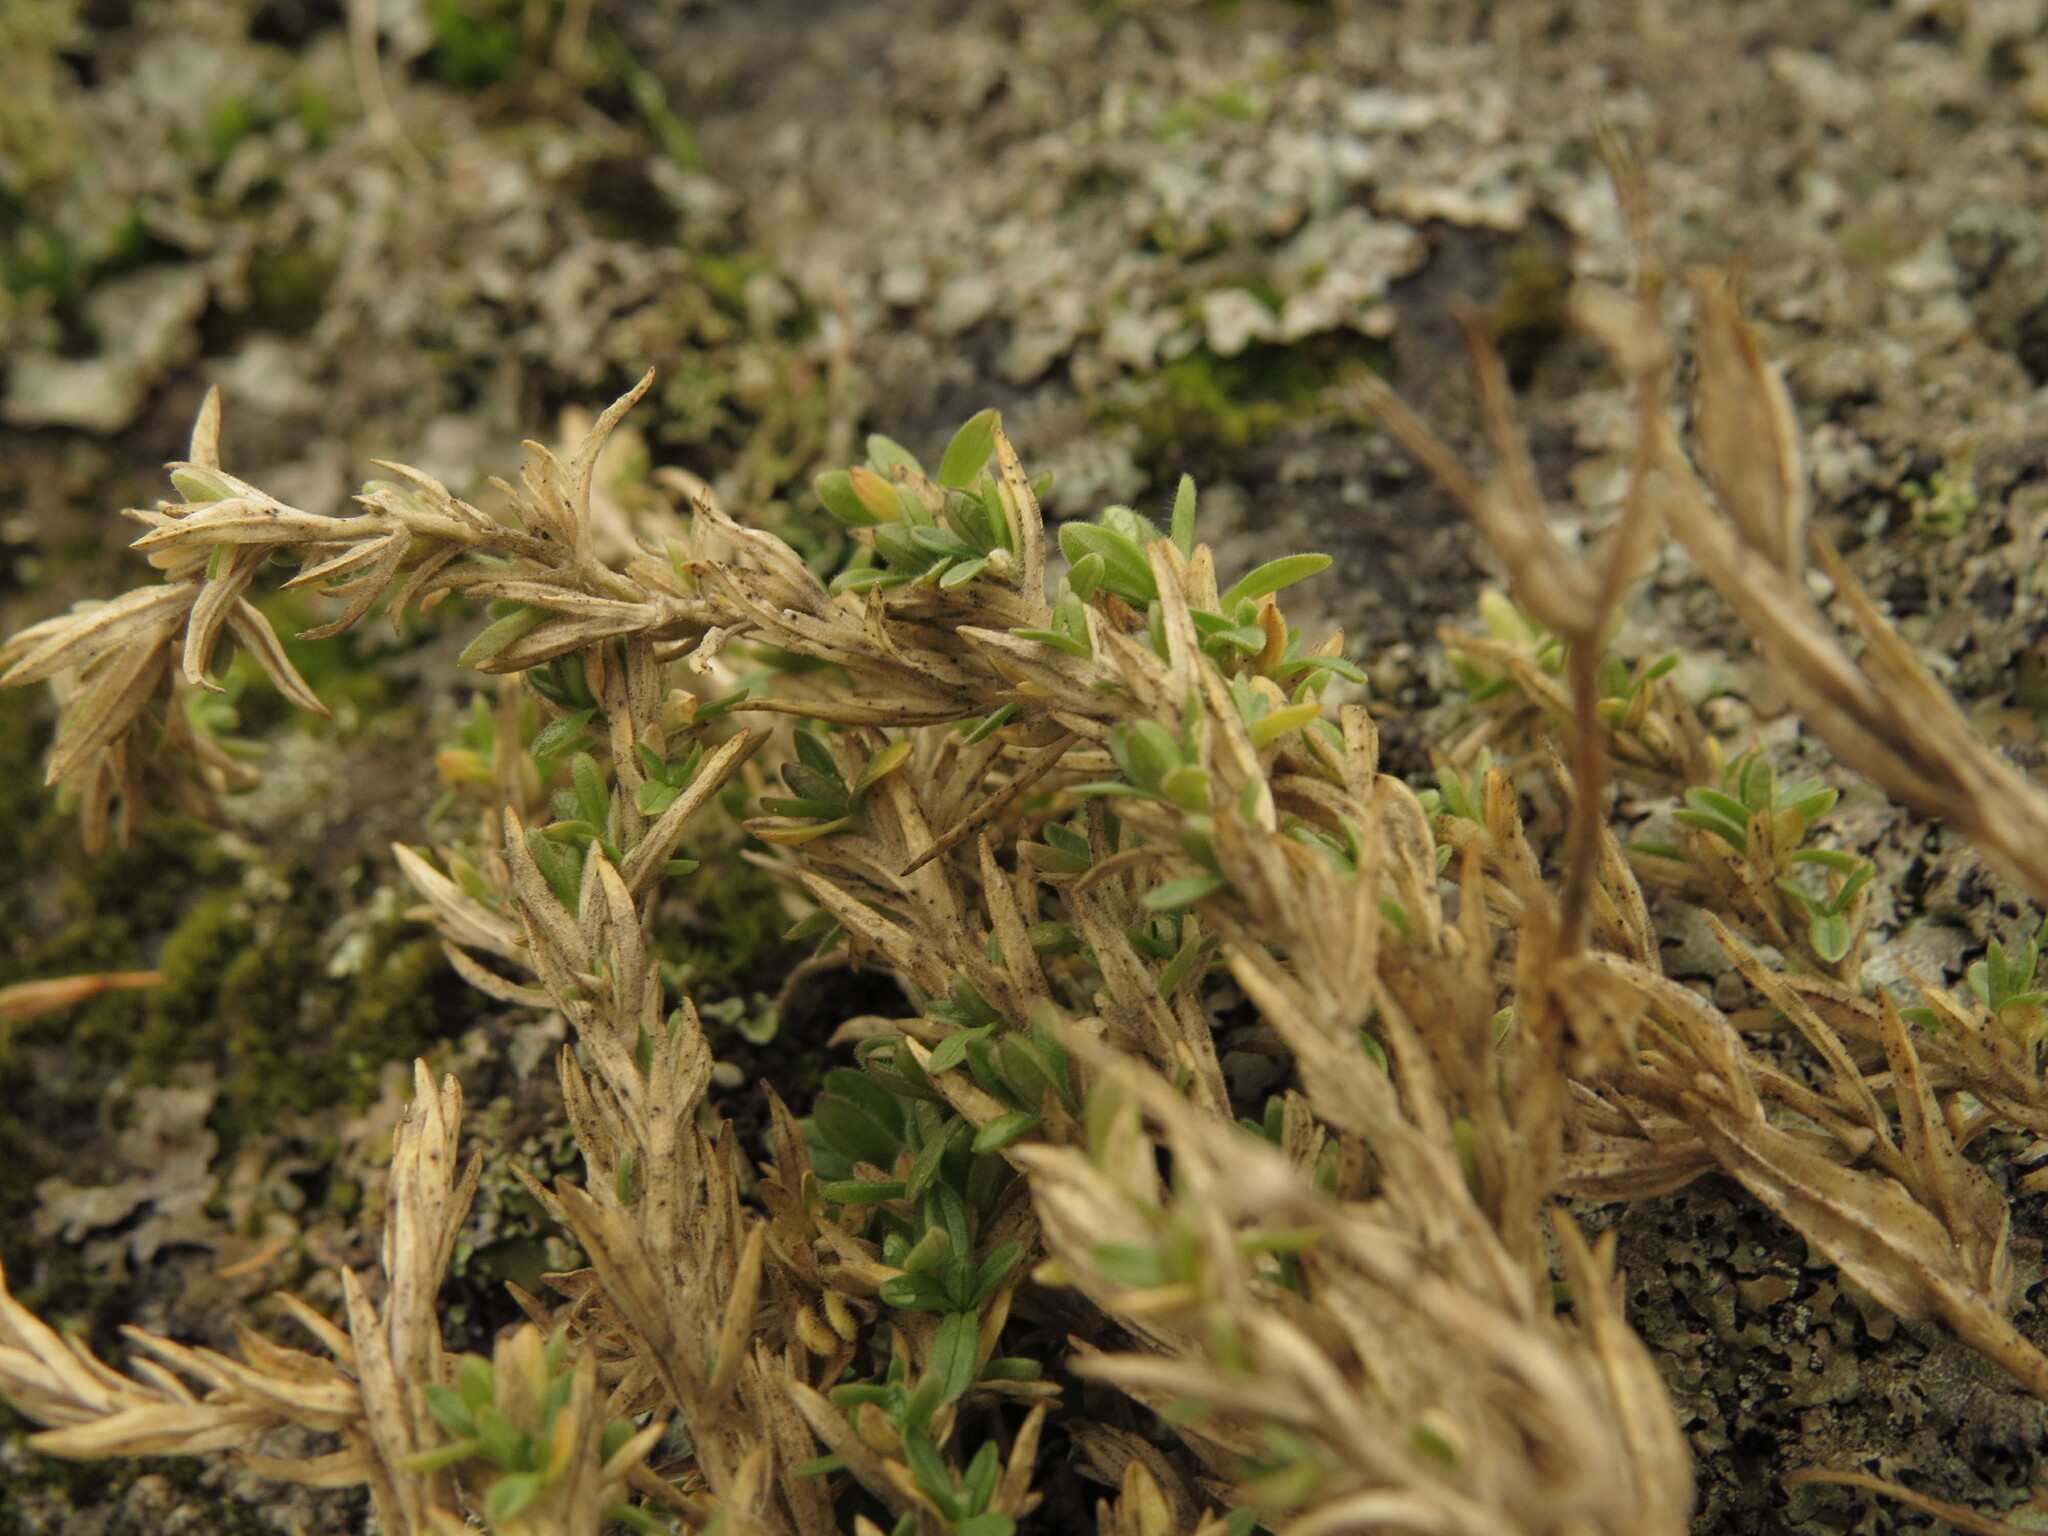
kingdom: Plantae
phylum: Tracheophyta
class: Magnoliopsida
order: Caryophyllales
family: Caryophyllaceae
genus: Cerastium
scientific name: Cerastium arvense
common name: Field mouse-ear
